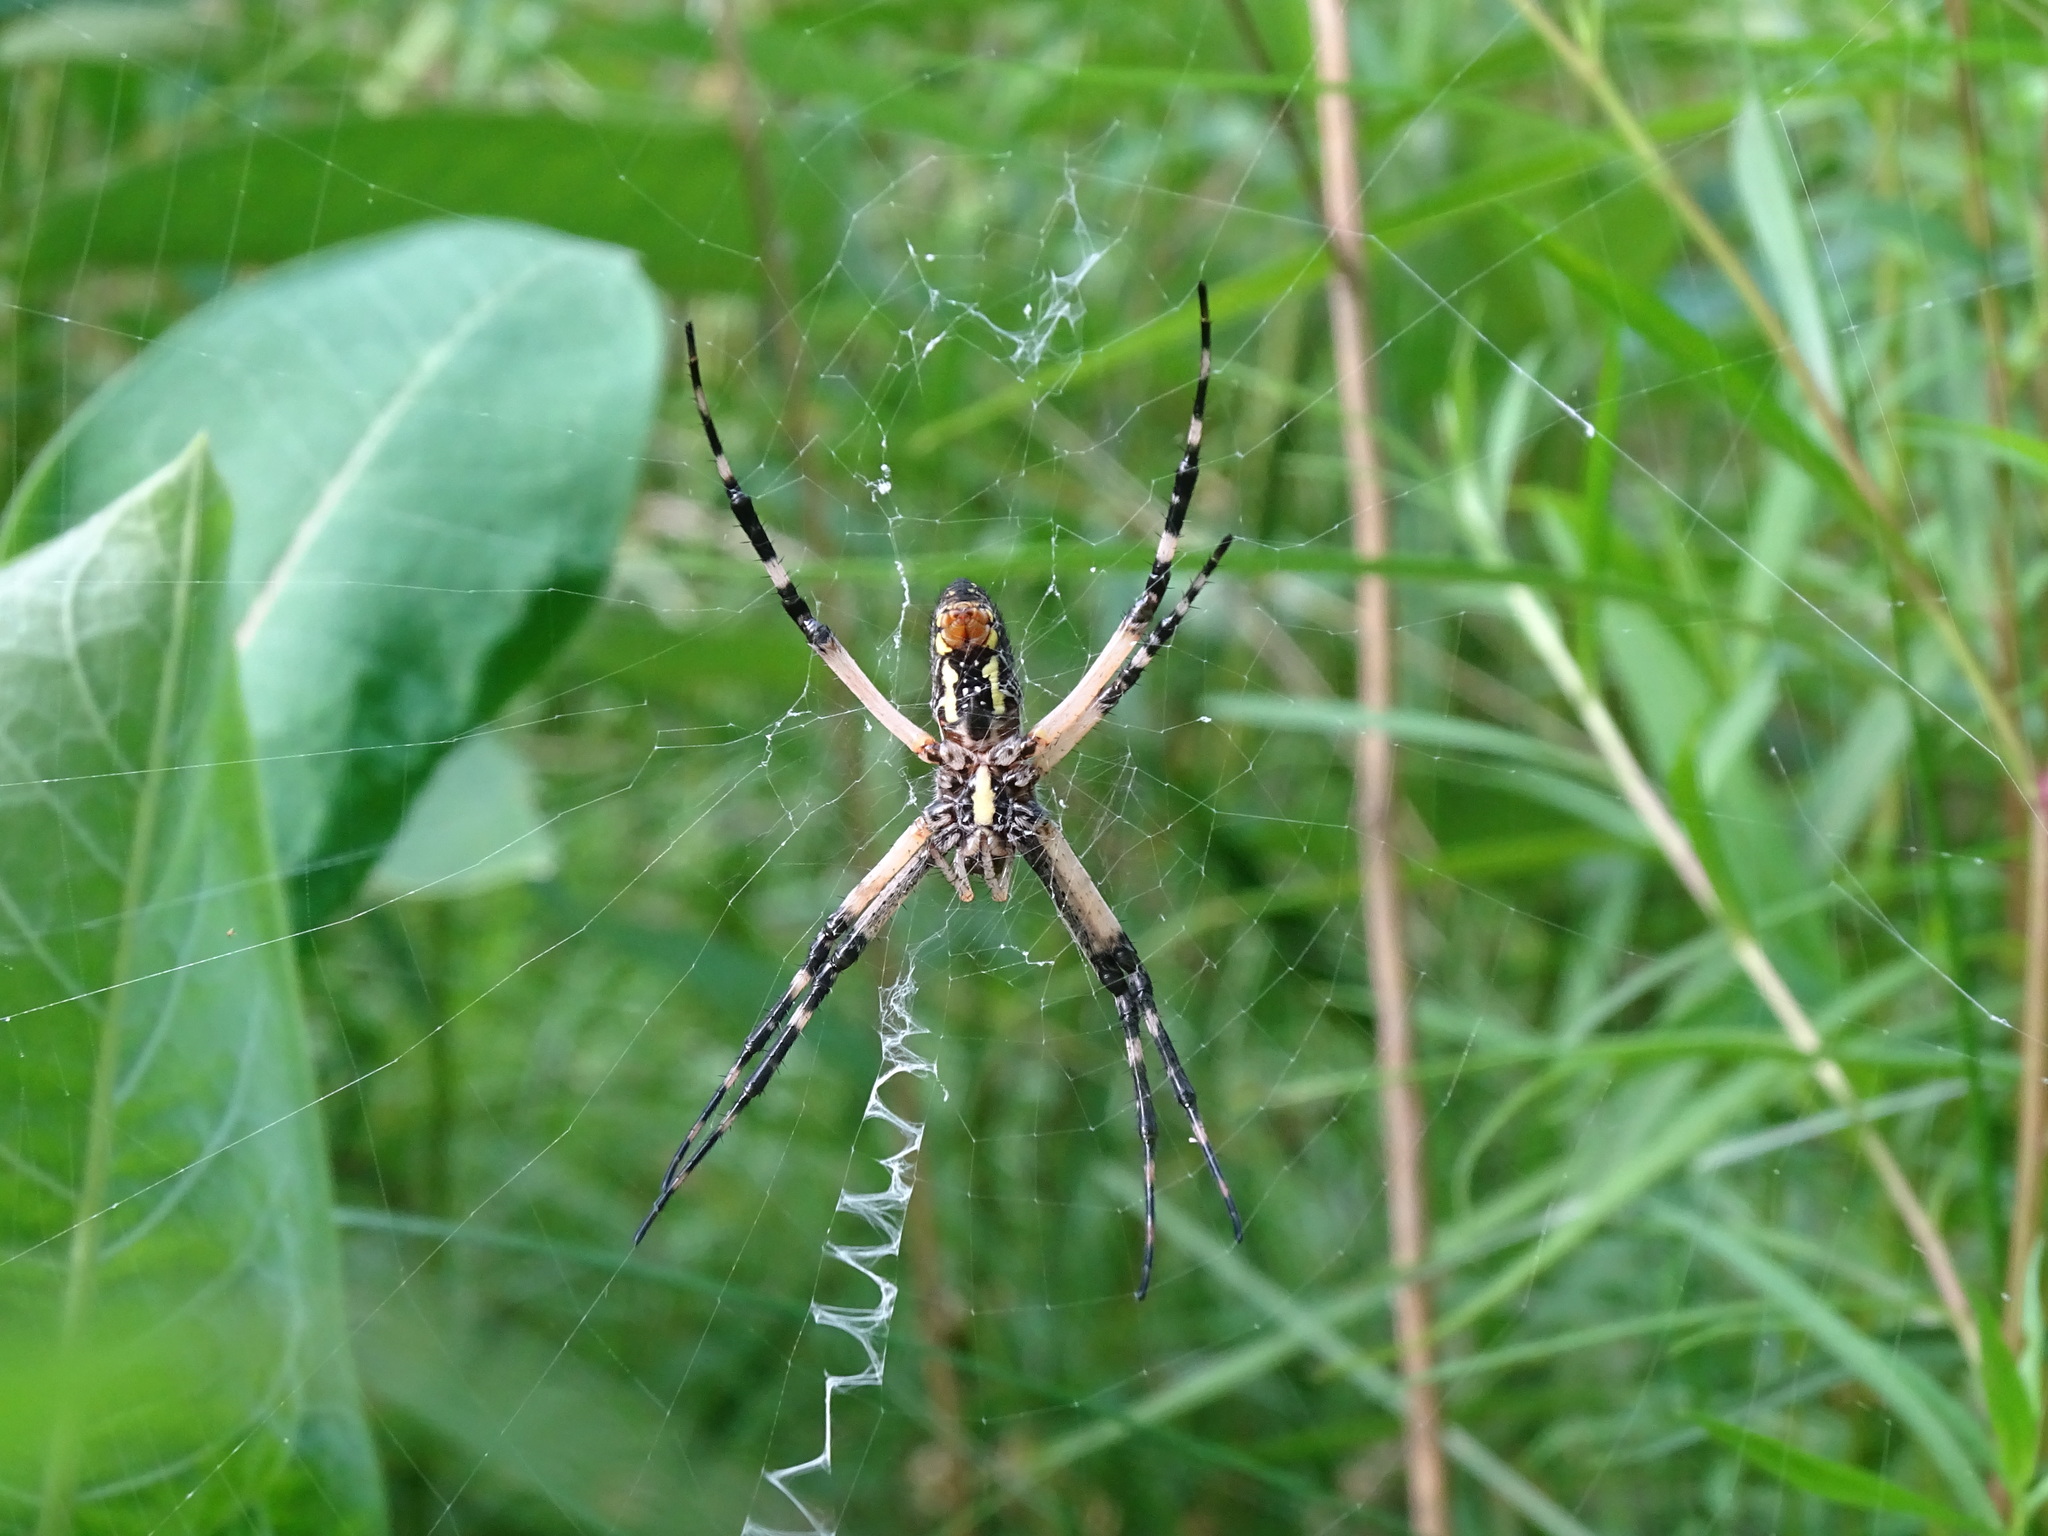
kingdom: Animalia
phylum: Arthropoda
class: Arachnida
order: Araneae
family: Araneidae
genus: Argiope
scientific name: Argiope aurantia
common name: Orb weavers
